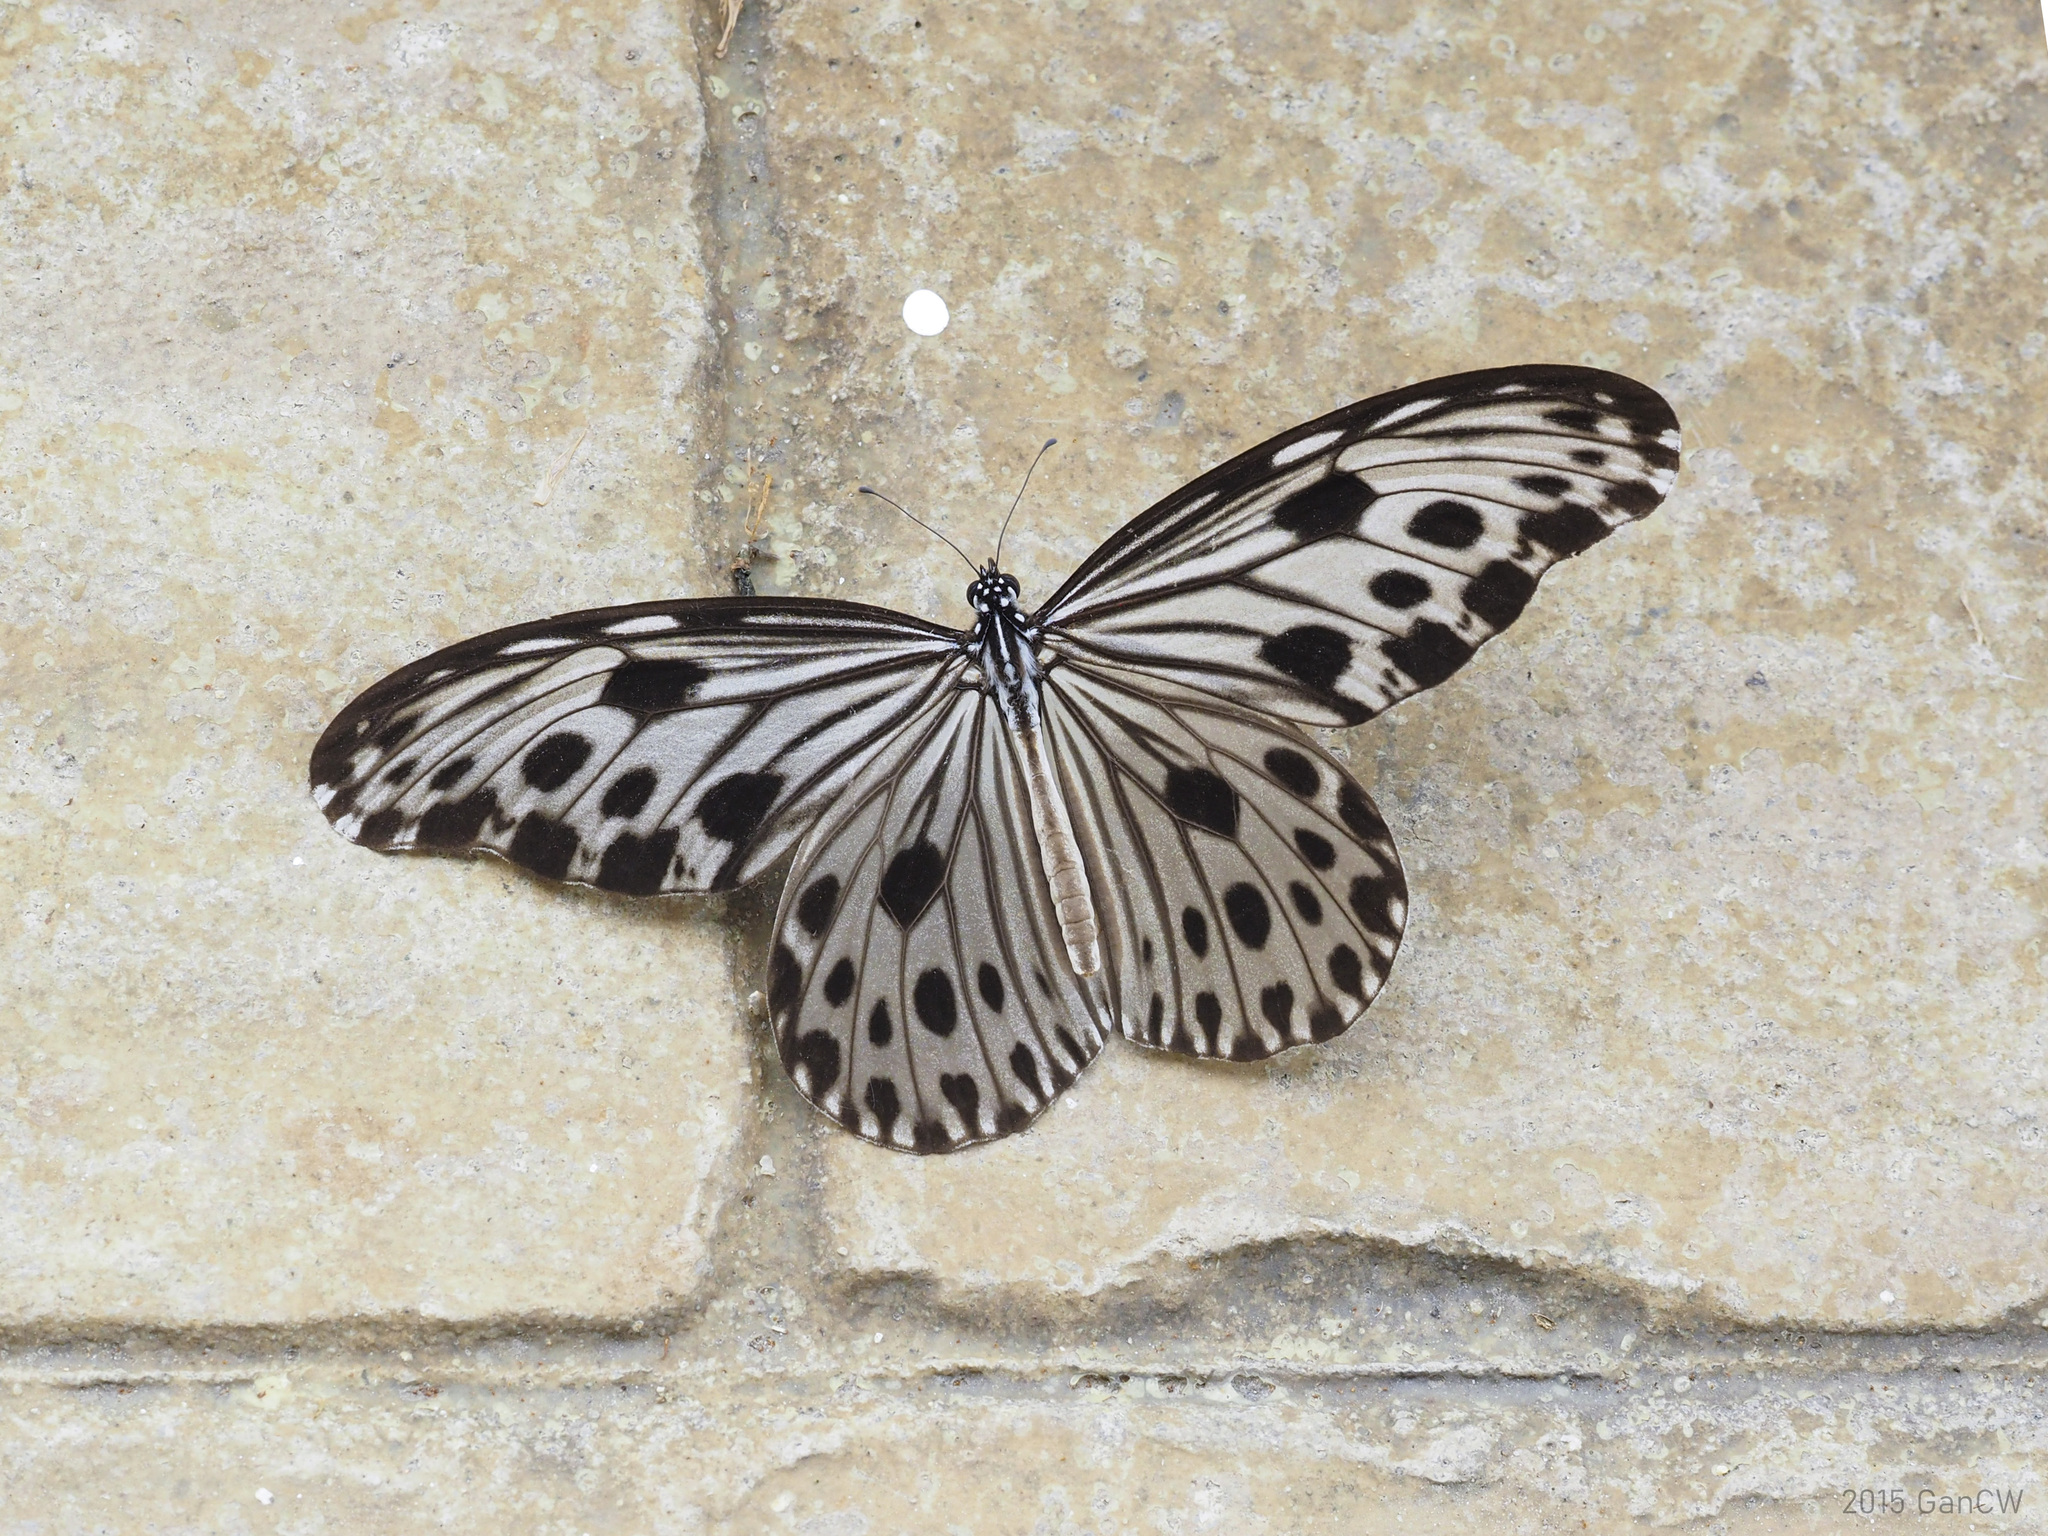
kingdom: Animalia
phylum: Arthropoda
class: Insecta
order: Lepidoptera
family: Nymphalidae
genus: Ideopsis
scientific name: Ideopsis gaura
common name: Smaller wood nymph
